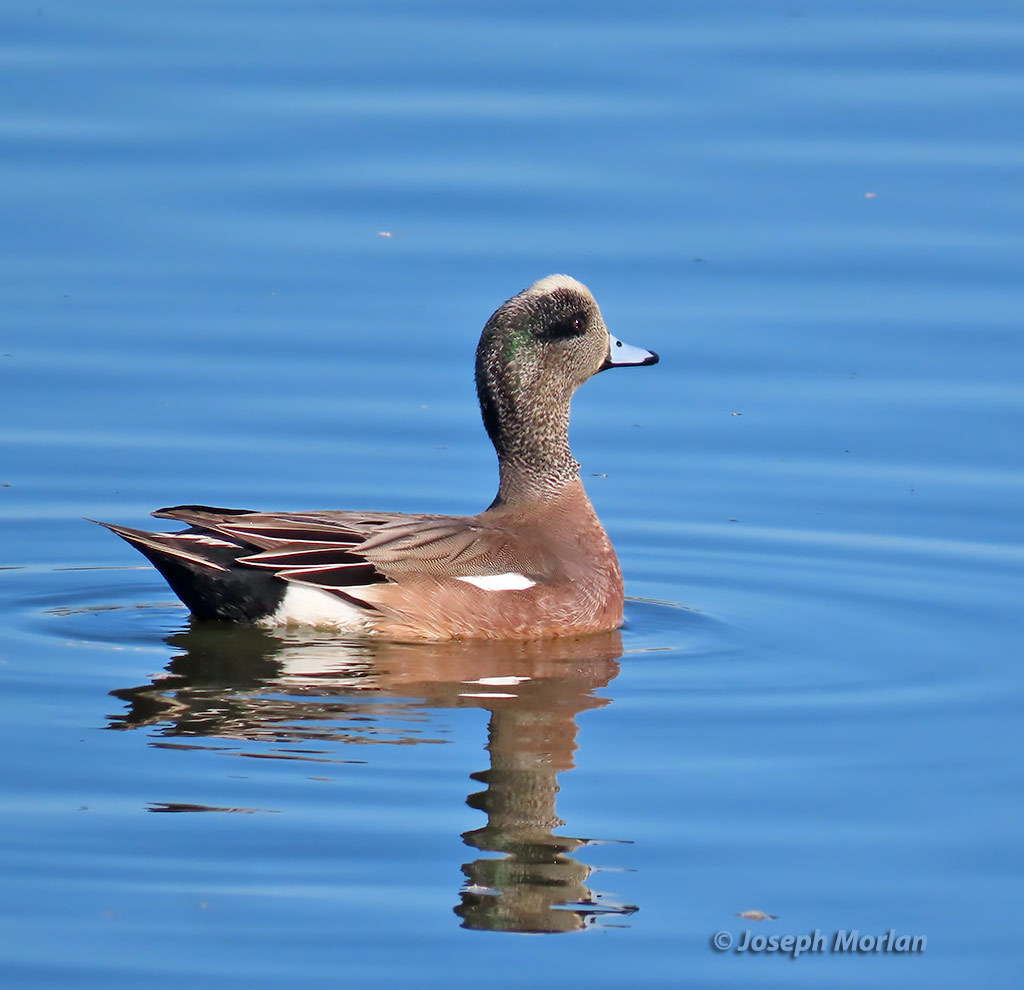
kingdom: Animalia
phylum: Chordata
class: Aves
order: Anseriformes
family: Anatidae
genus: Mareca
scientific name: Mareca americana
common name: American wigeon
